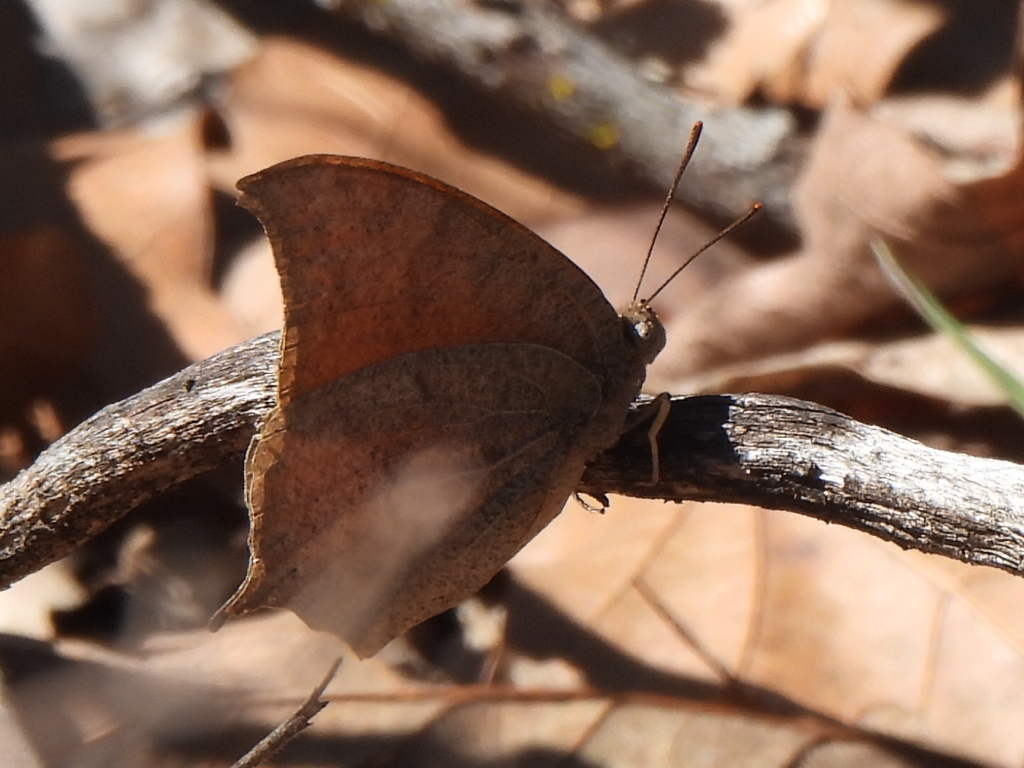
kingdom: Animalia
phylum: Arthropoda
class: Insecta
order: Lepidoptera
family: Nymphalidae
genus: Anaea
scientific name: Anaea andria
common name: Goatweed leafwing
